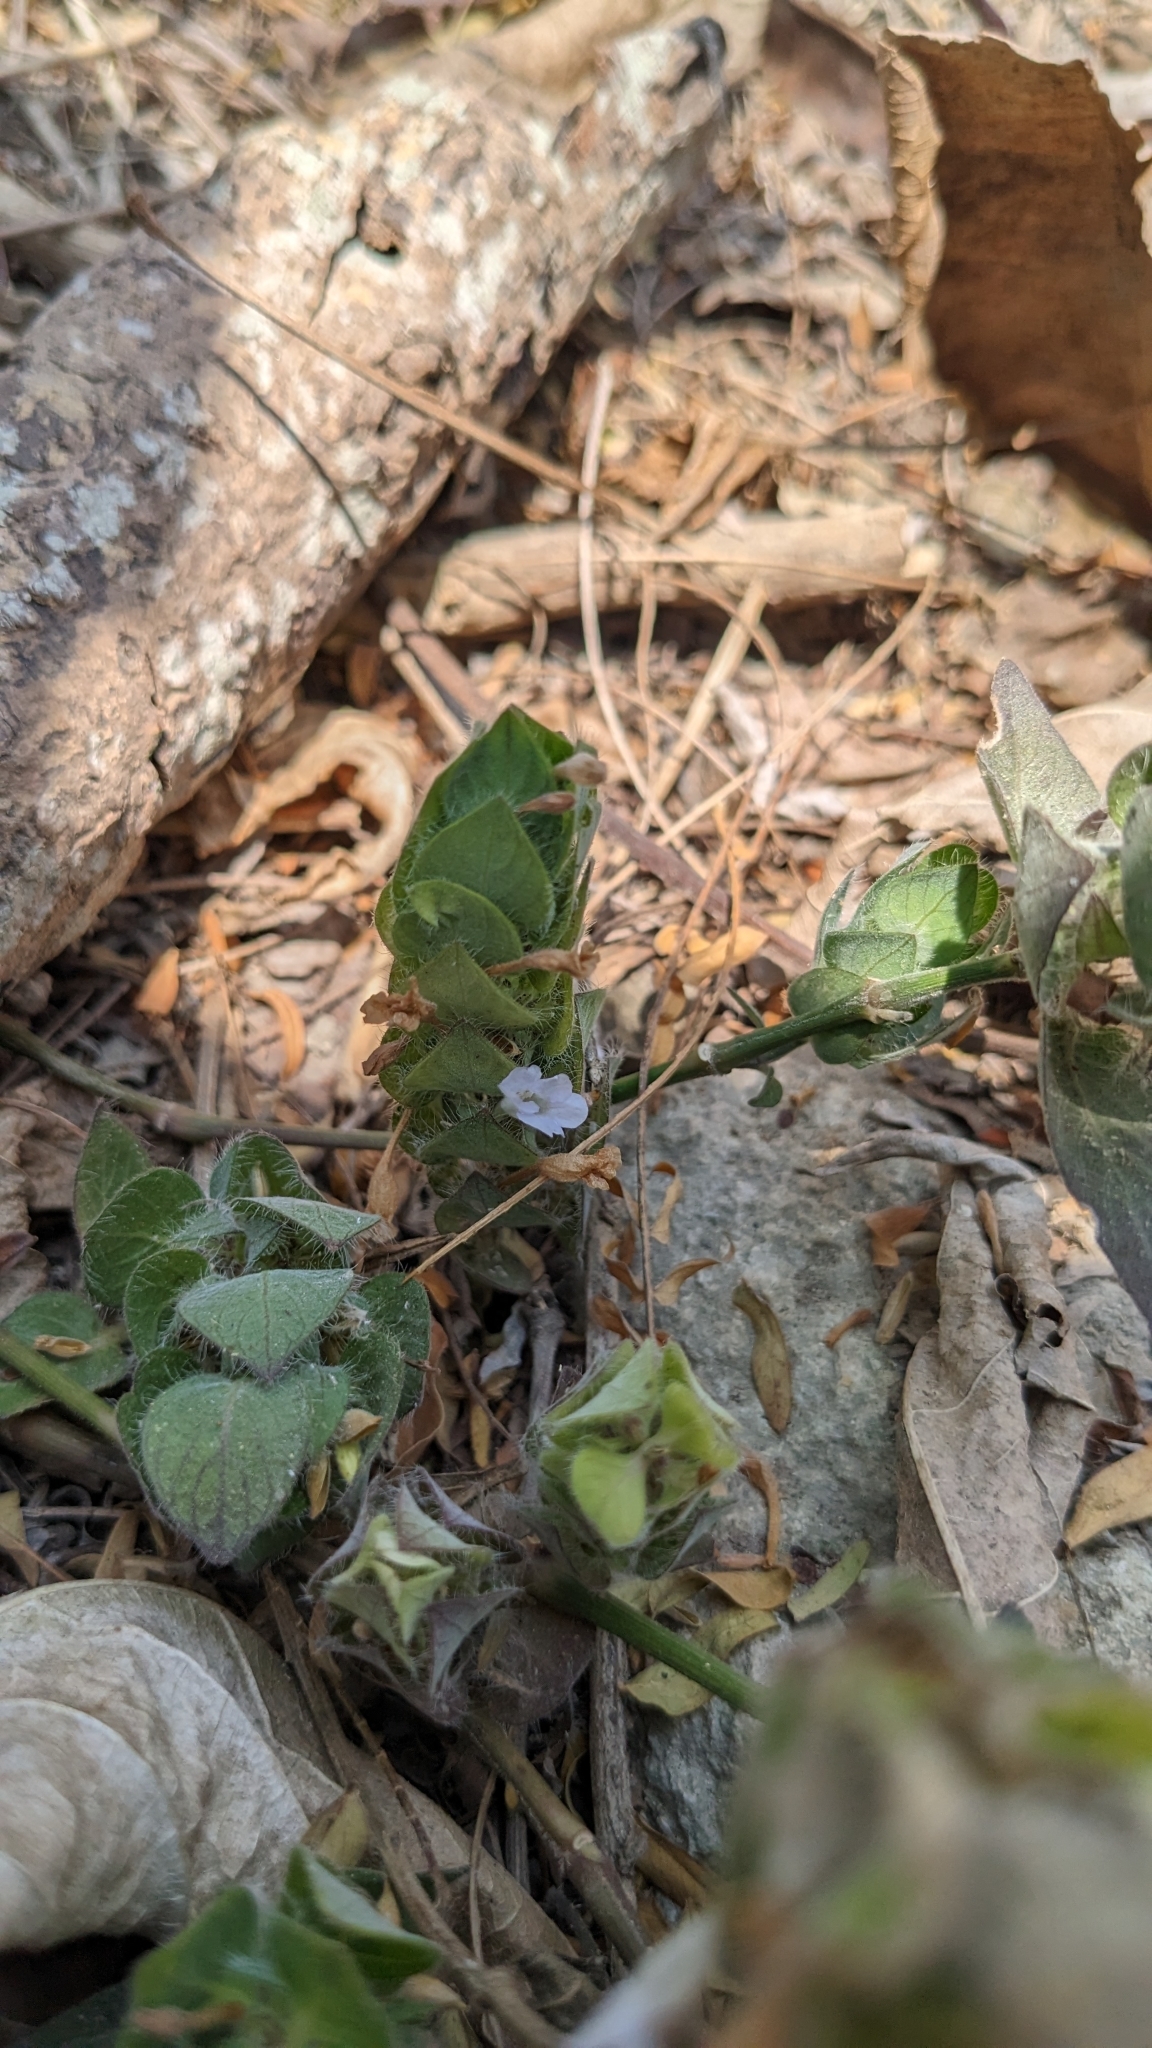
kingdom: Plantae
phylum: Tracheophyta
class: Magnoliopsida
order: Lamiales
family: Acanthaceae
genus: Ruellia
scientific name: Ruellia blechum
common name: Browne's blechum
